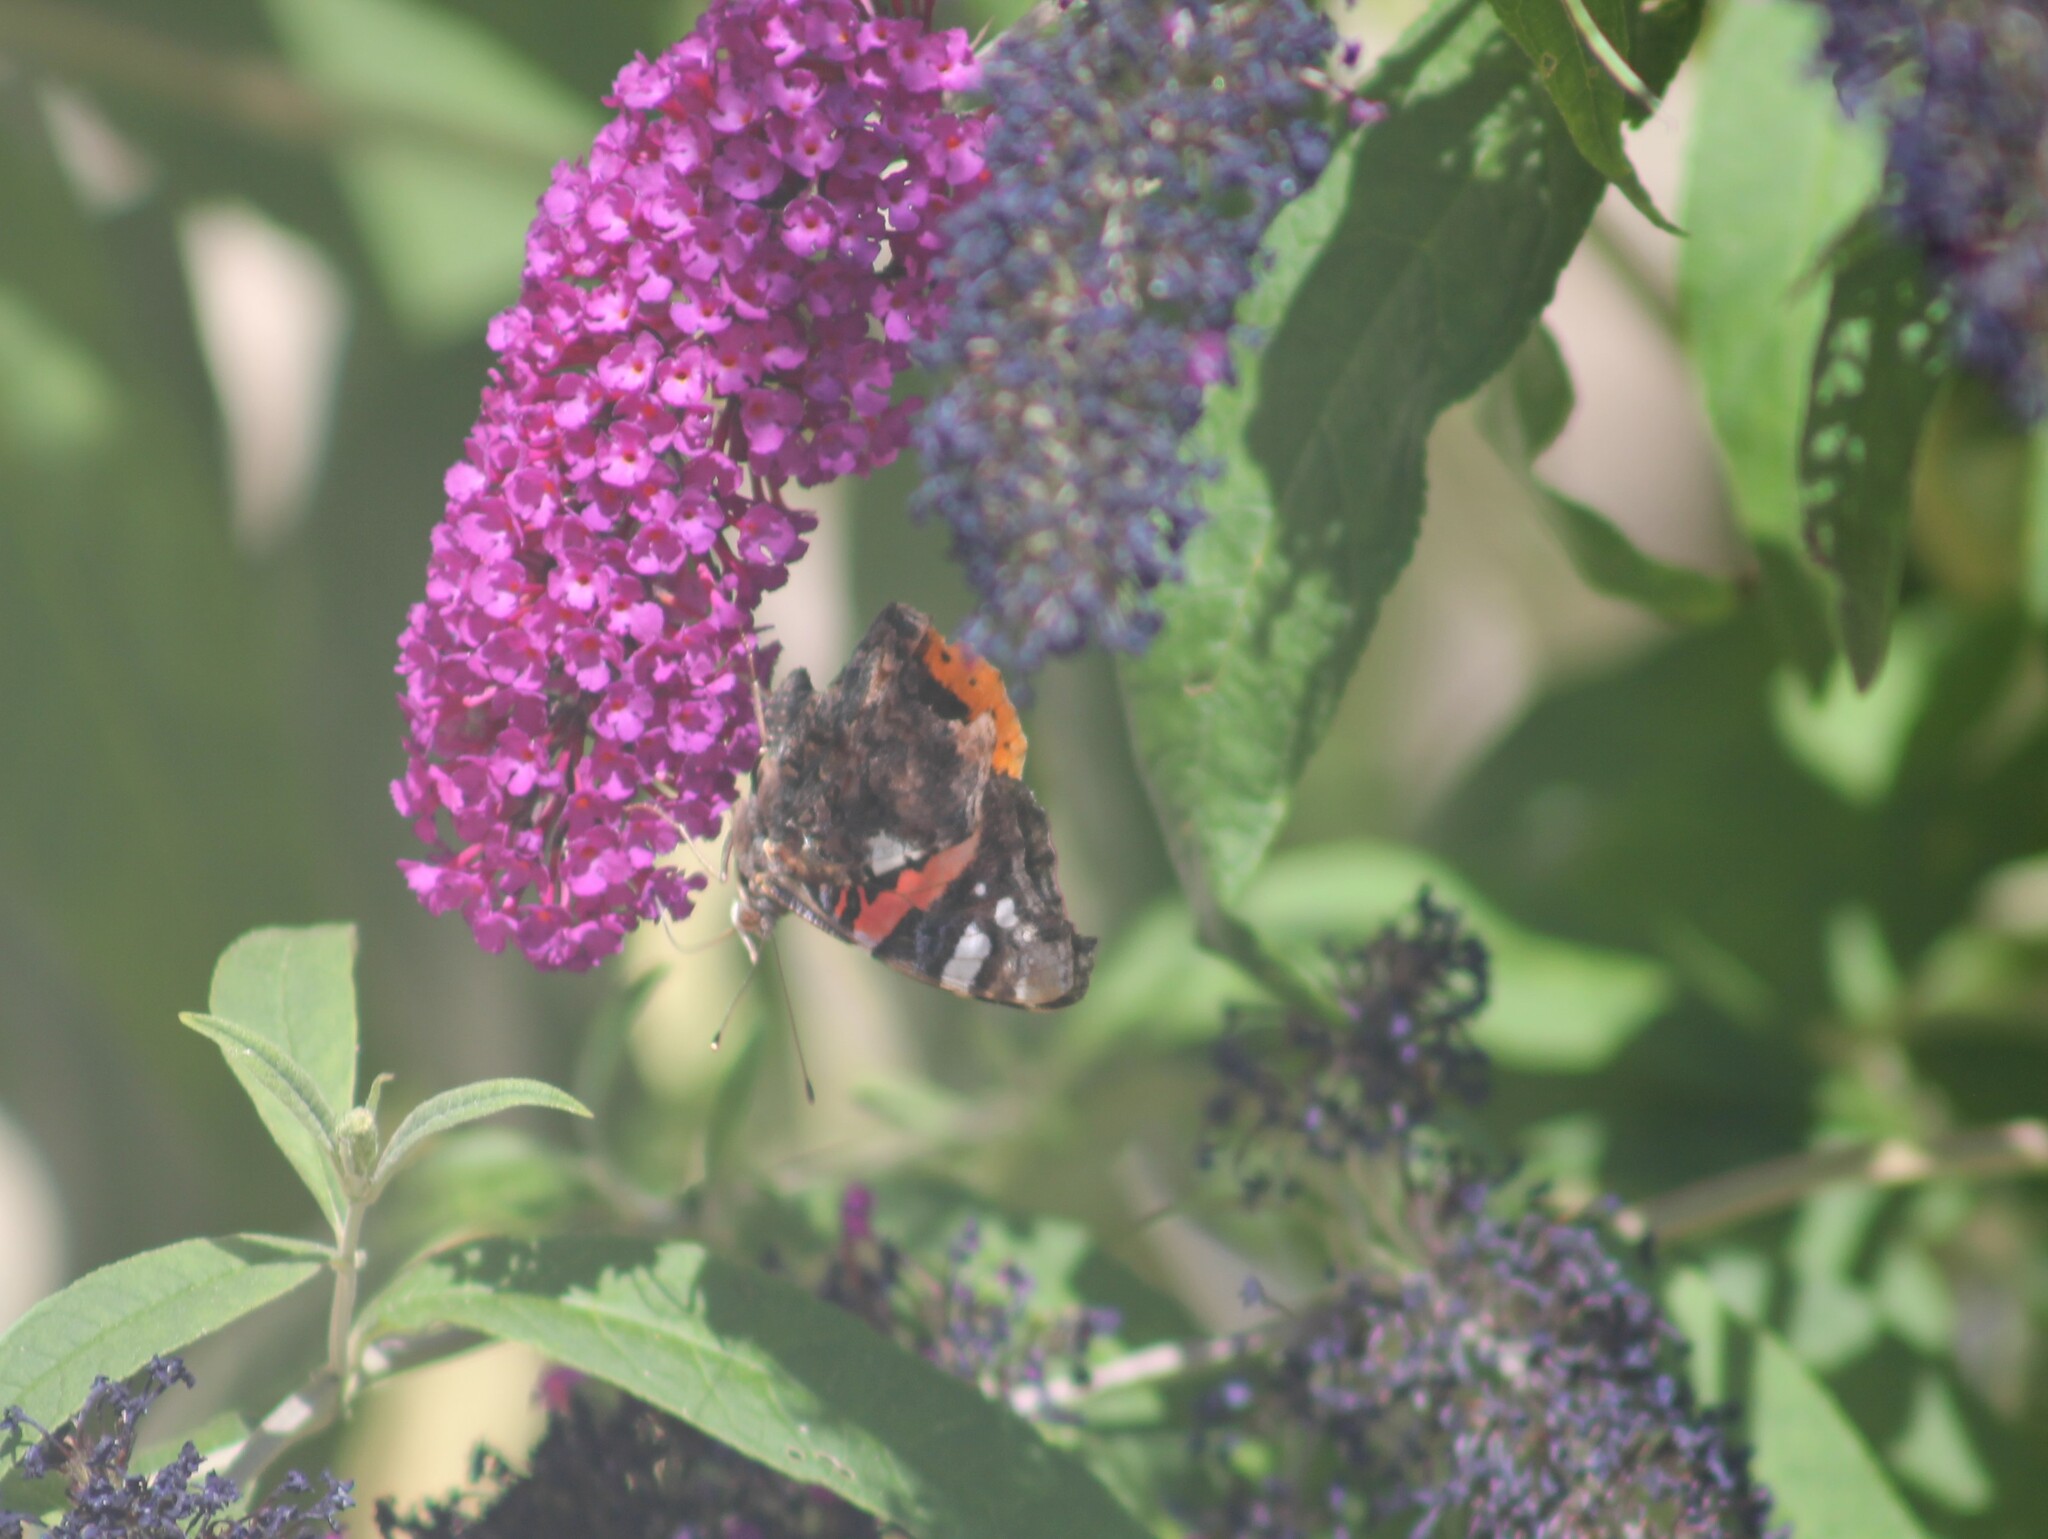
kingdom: Animalia
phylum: Arthropoda
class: Insecta
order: Lepidoptera
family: Nymphalidae
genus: Vanessa
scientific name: Vanessa atalanta
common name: Red admiral
